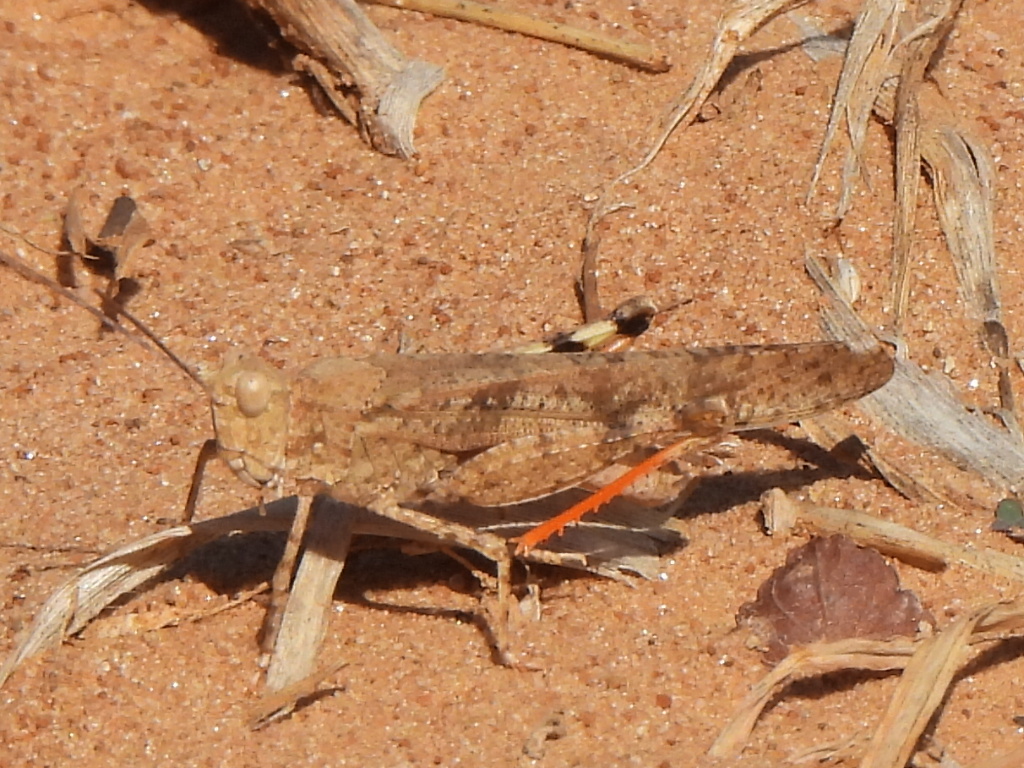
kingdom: Animalia
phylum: Arthropoda
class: Insecta
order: Orthoptera
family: Acrididae
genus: Trimerotropis
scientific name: Trimerotropis maritima
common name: Seaside locust
